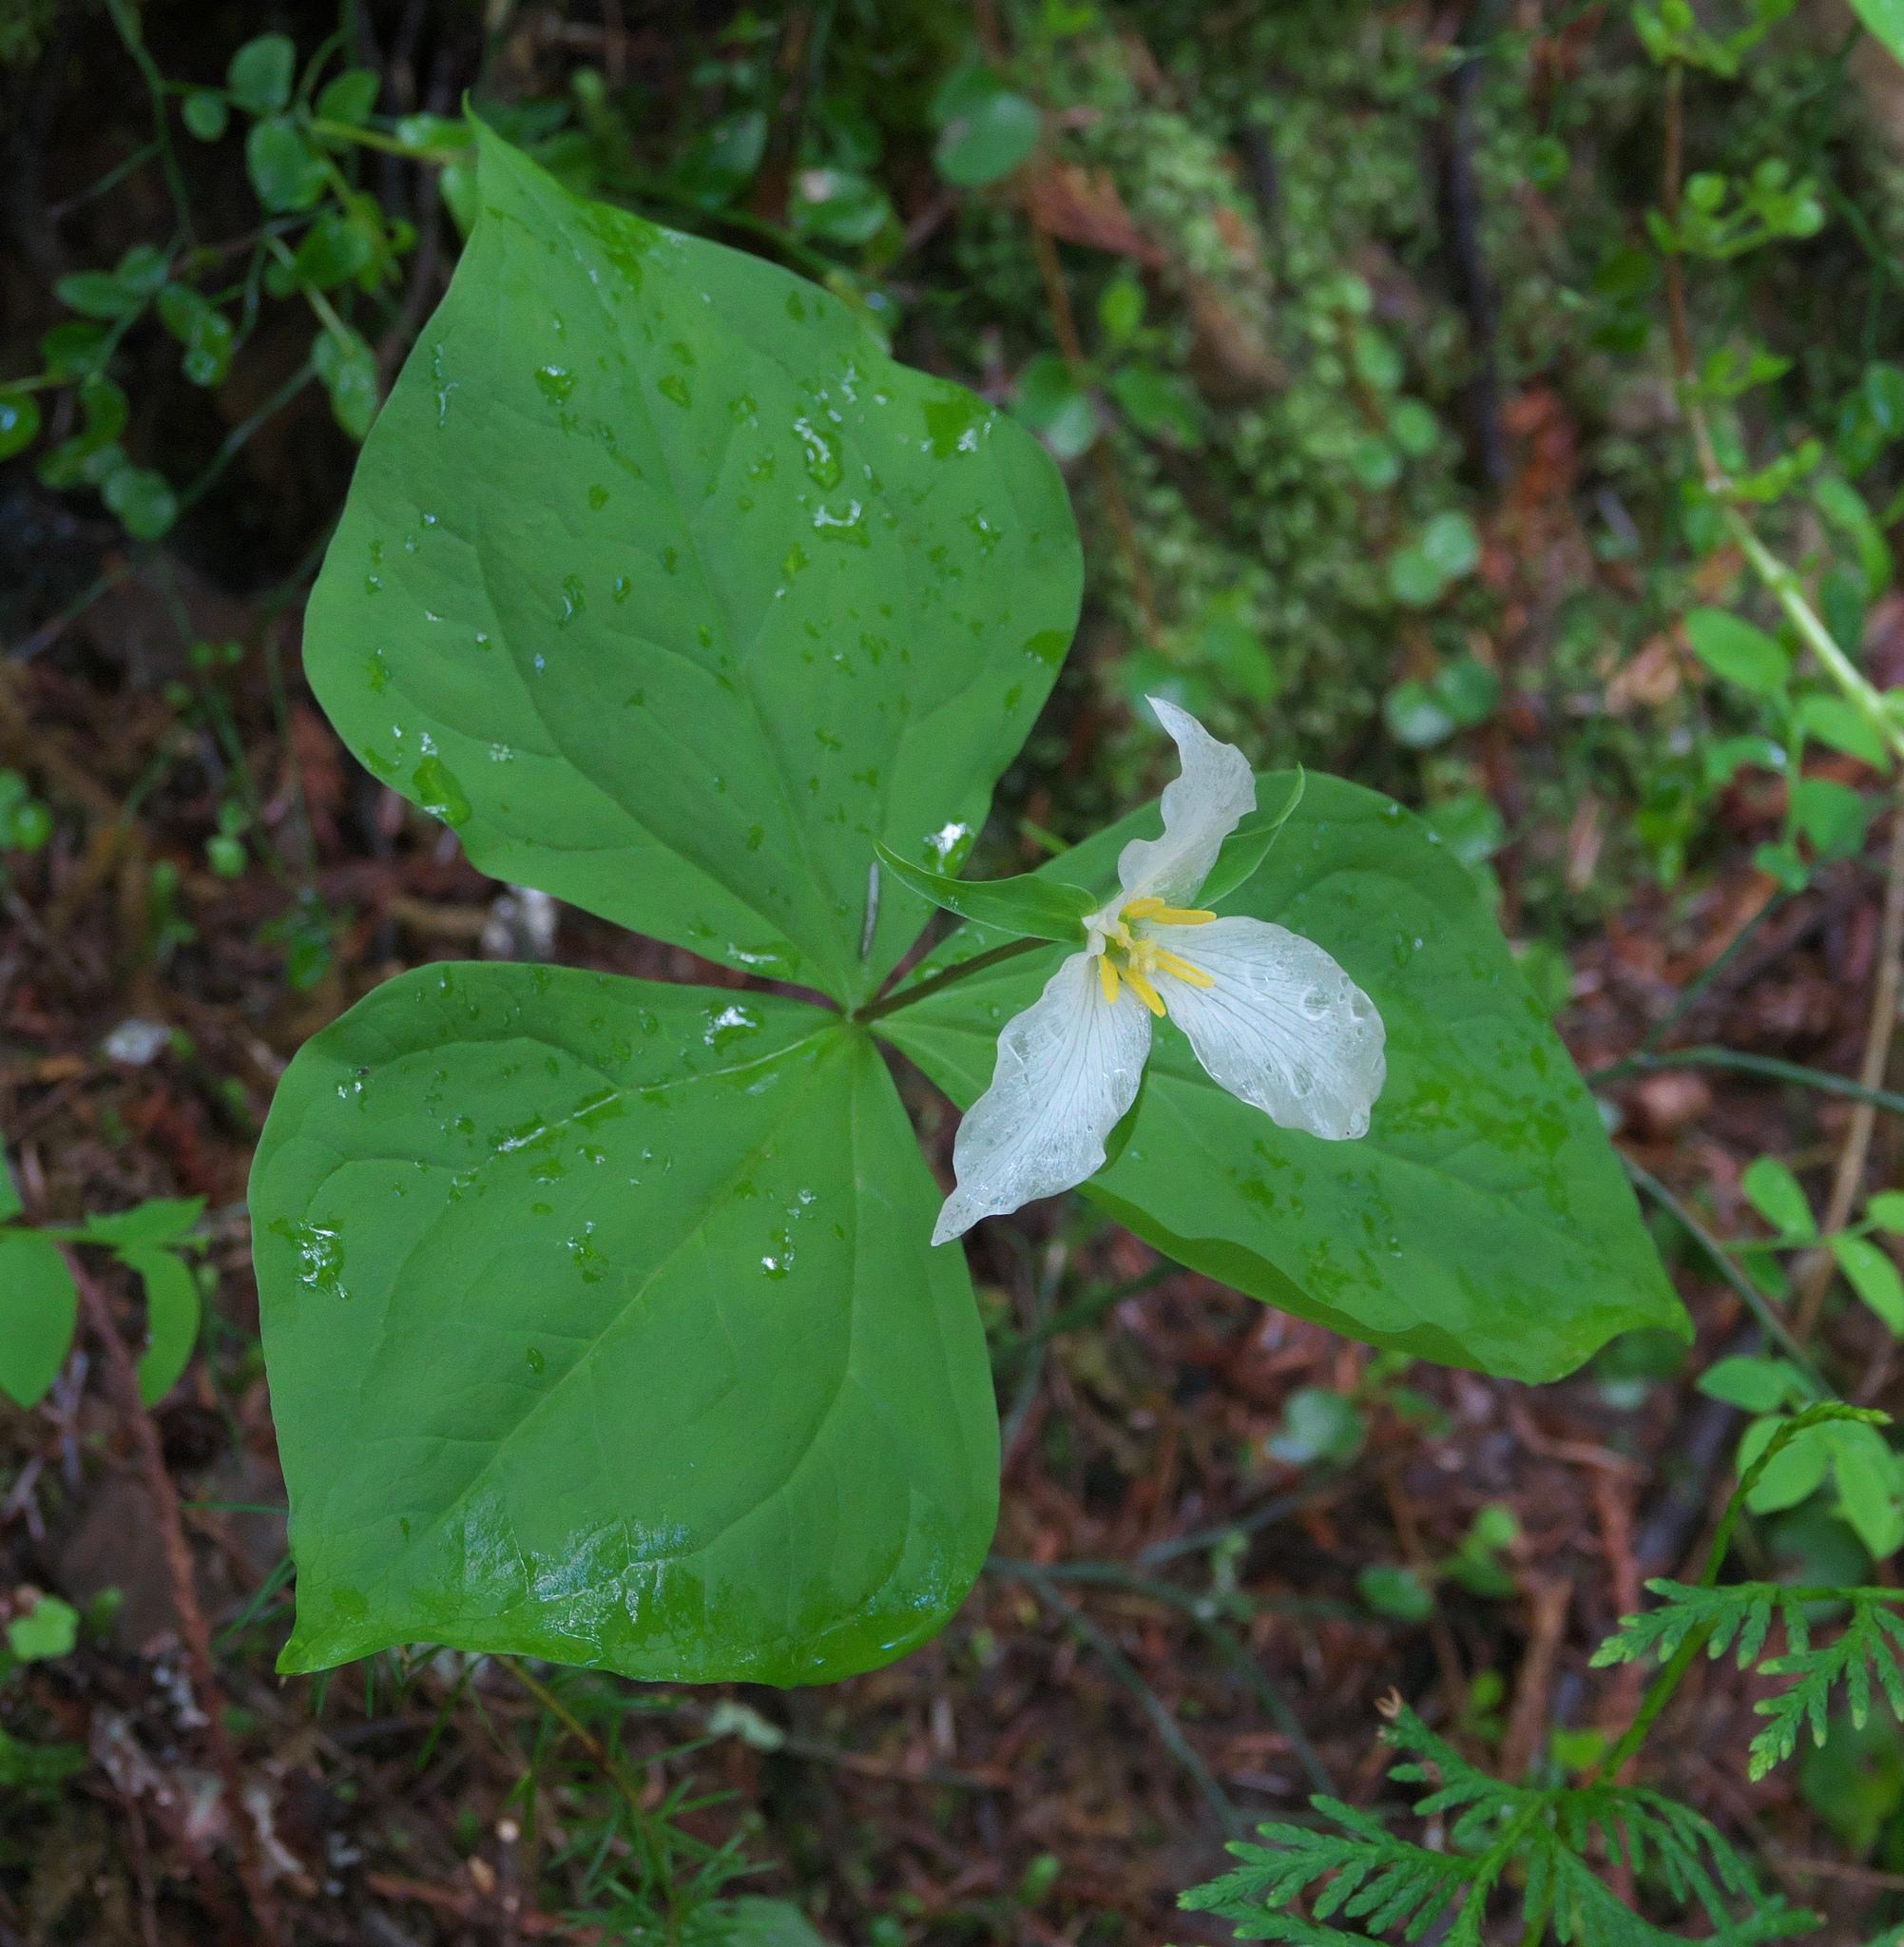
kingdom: Plantae
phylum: Tracheophyta
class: Liliopsida
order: Liliales
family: Melanthiaceae
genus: Trillium
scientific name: Trillium ovatum
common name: Pacific trillium
